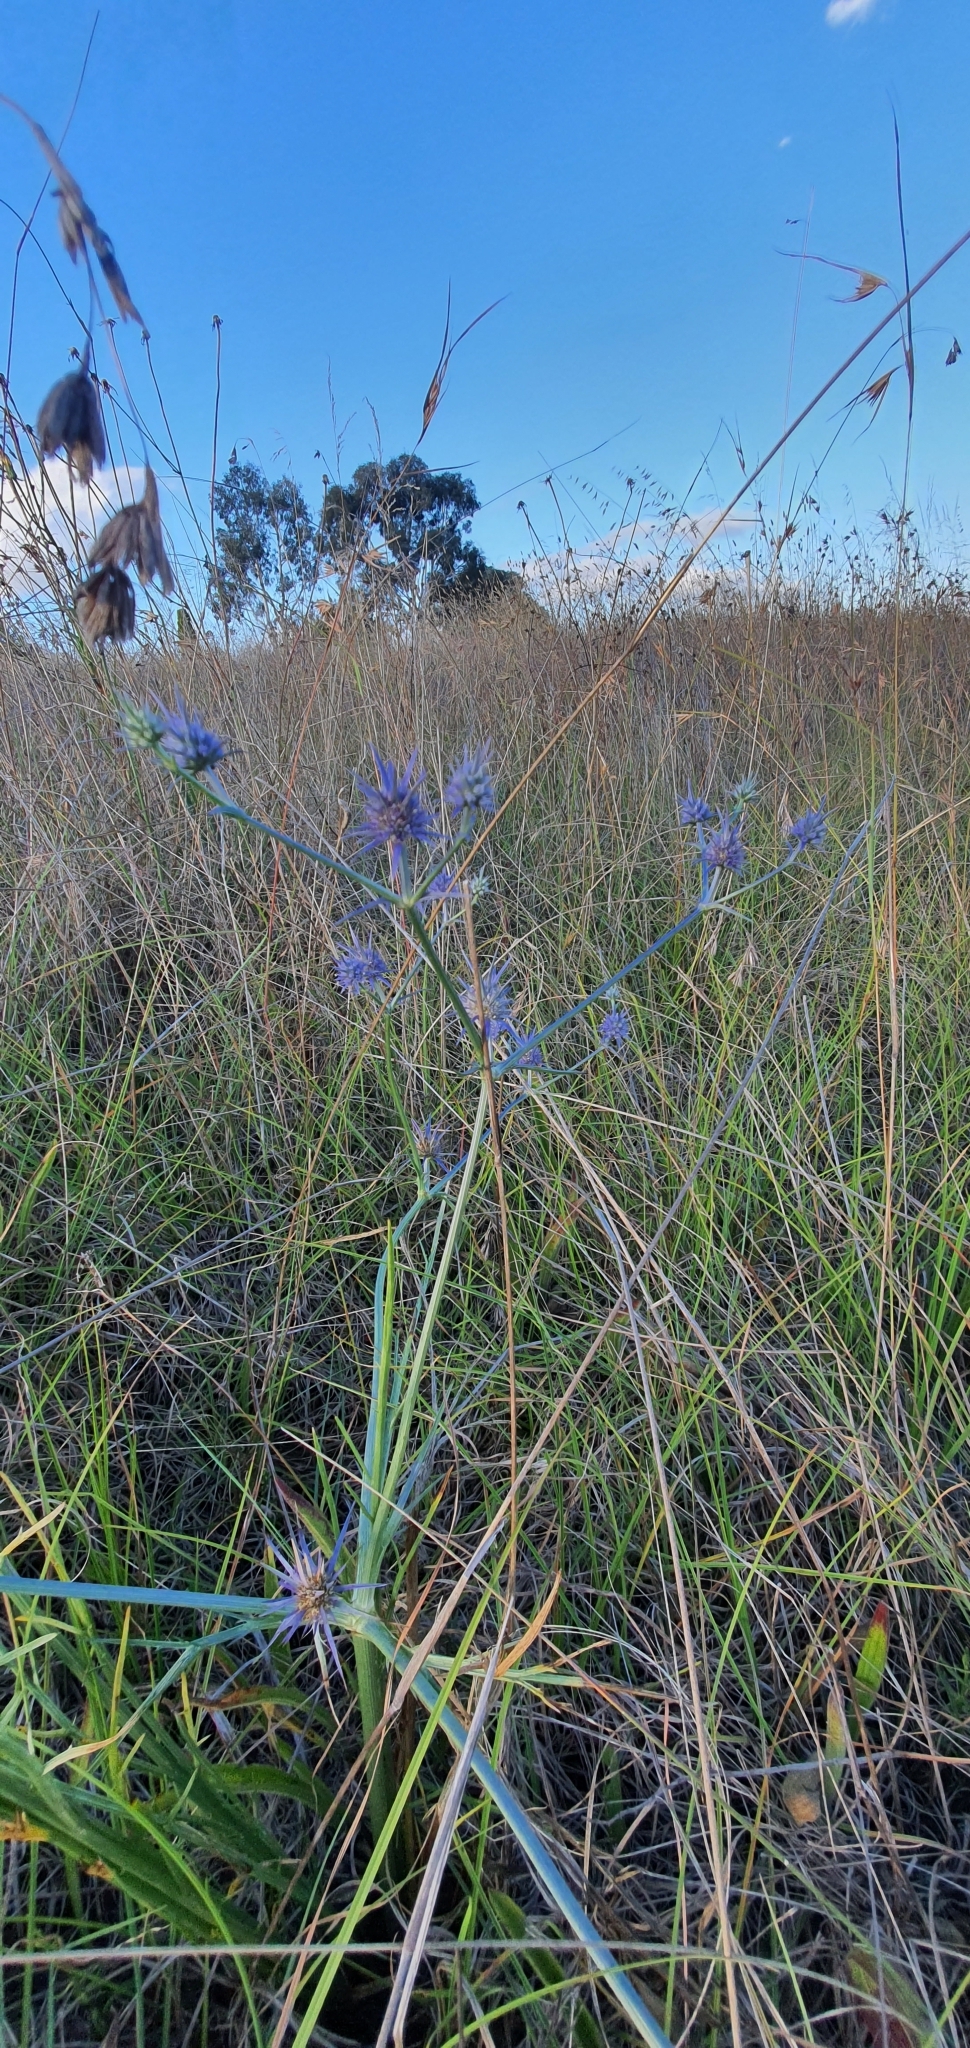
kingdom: Plantae
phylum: Tracheophyta
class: Magnoliopsida
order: Apiales
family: Apiaceae
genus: Eryngium
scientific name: Eryngium ovinum
